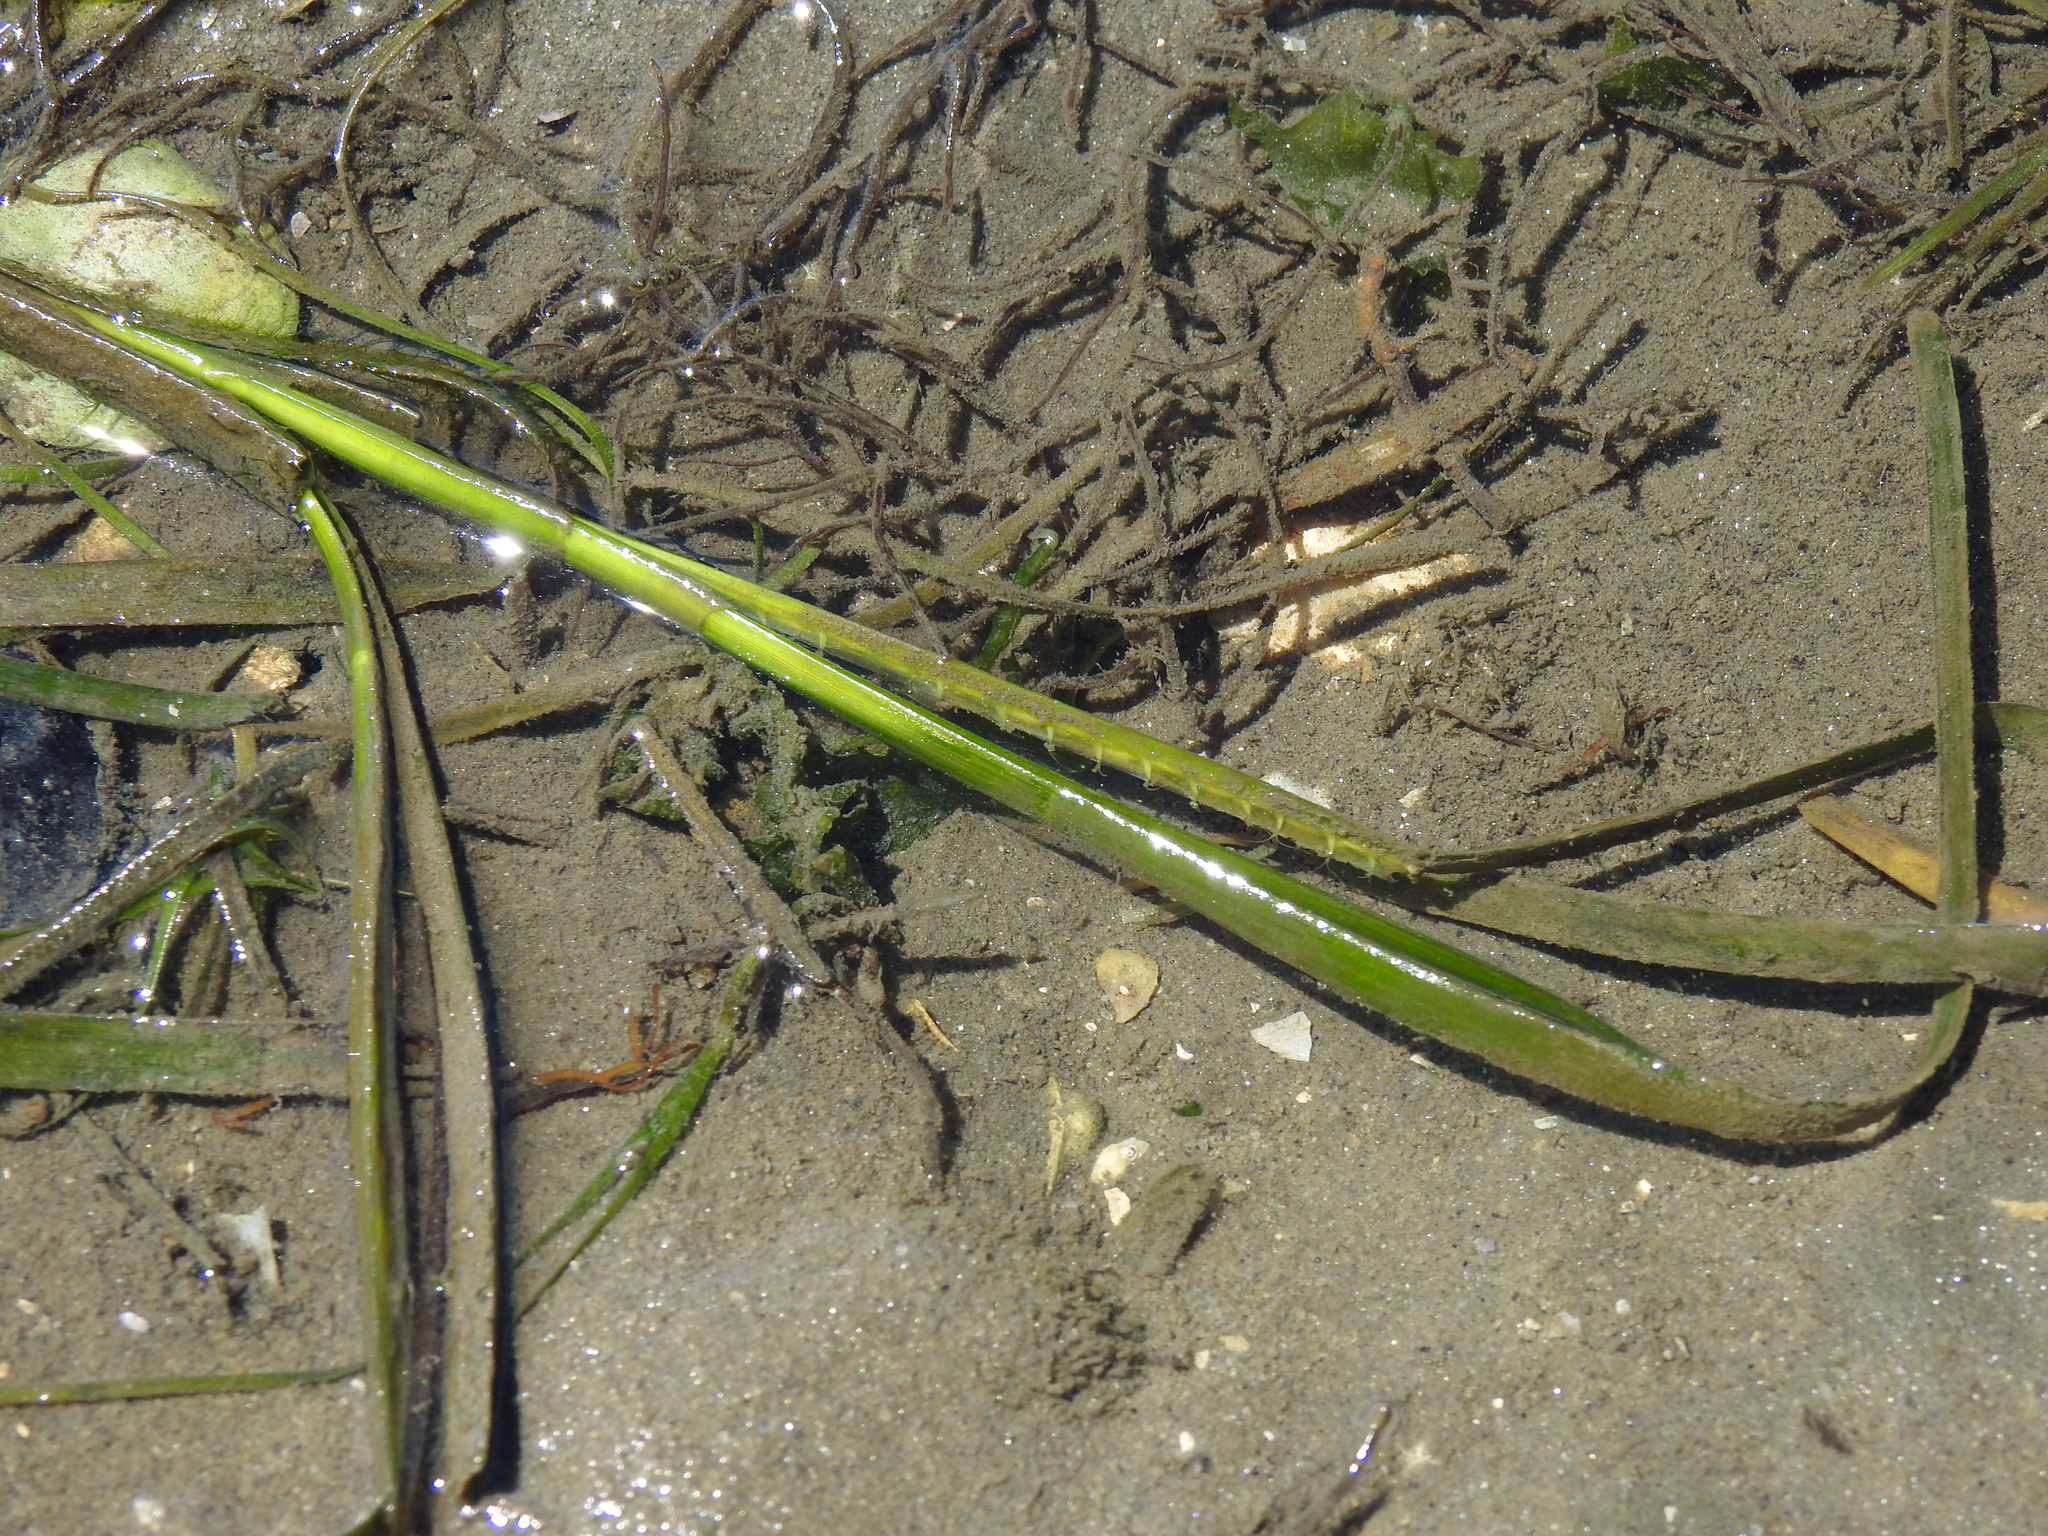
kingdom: Plantae
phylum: Tracheophyta
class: Liliopsida
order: Alismatales
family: Zosteraceae
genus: Zostera
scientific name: Zostera marina
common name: Eelgrass
